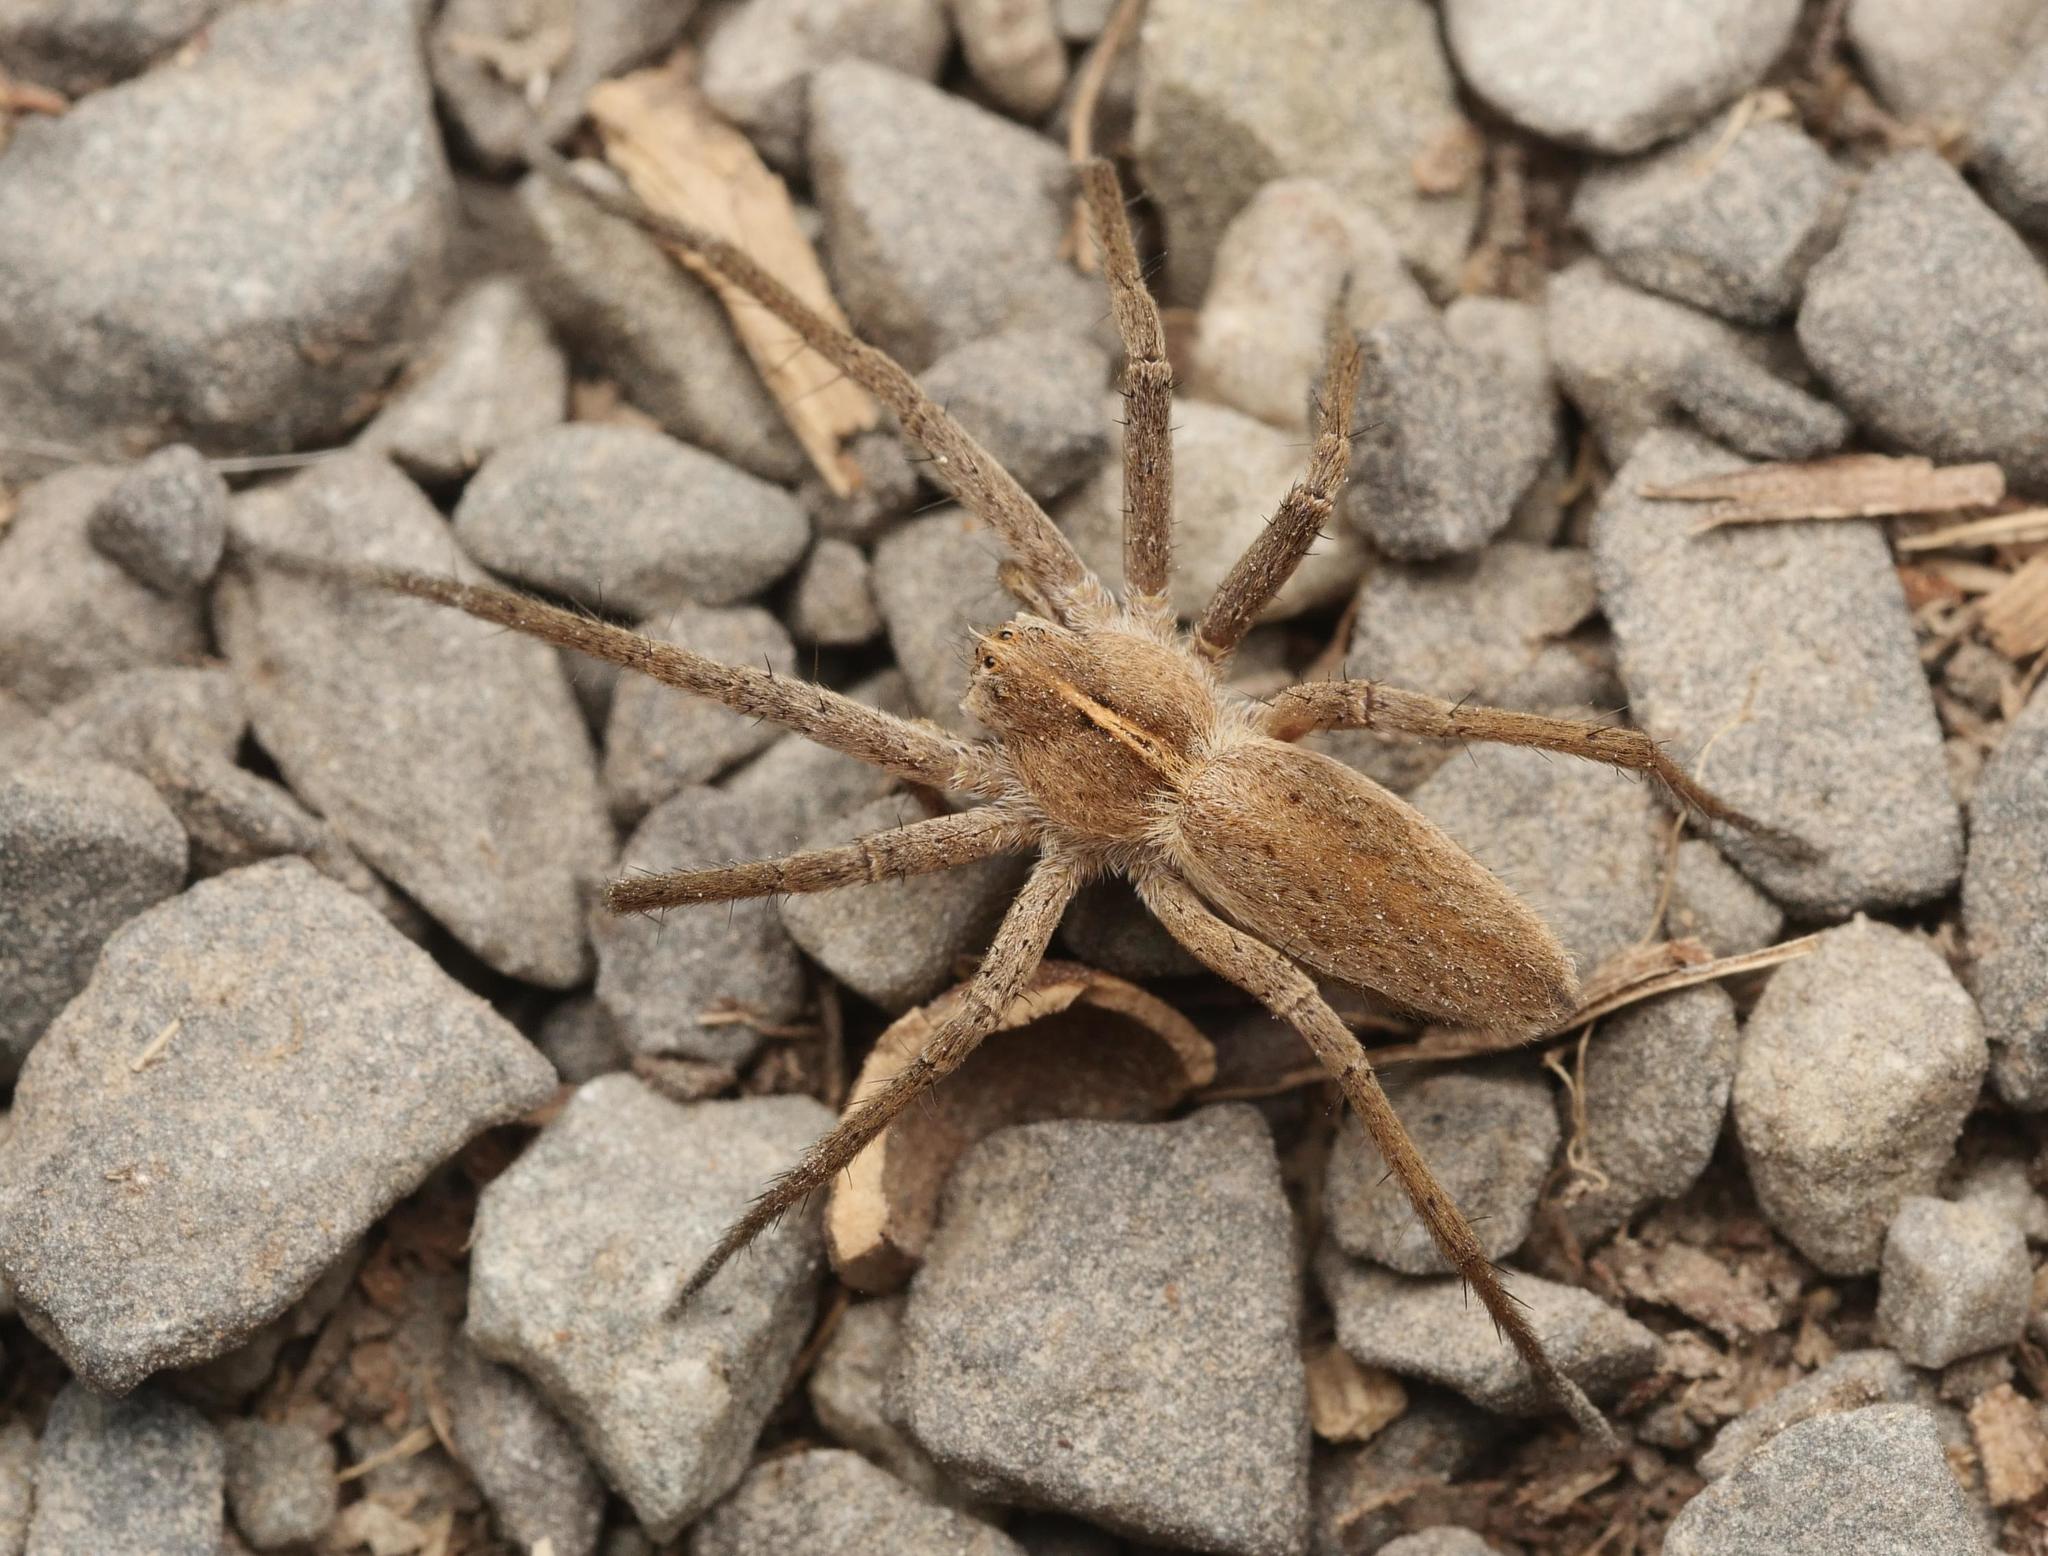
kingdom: Animalia
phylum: Arthropoda
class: Arachnida
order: Araneae
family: Pisauridae
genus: Pisaura
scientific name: Pisaura mirabilis
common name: Tent spider
